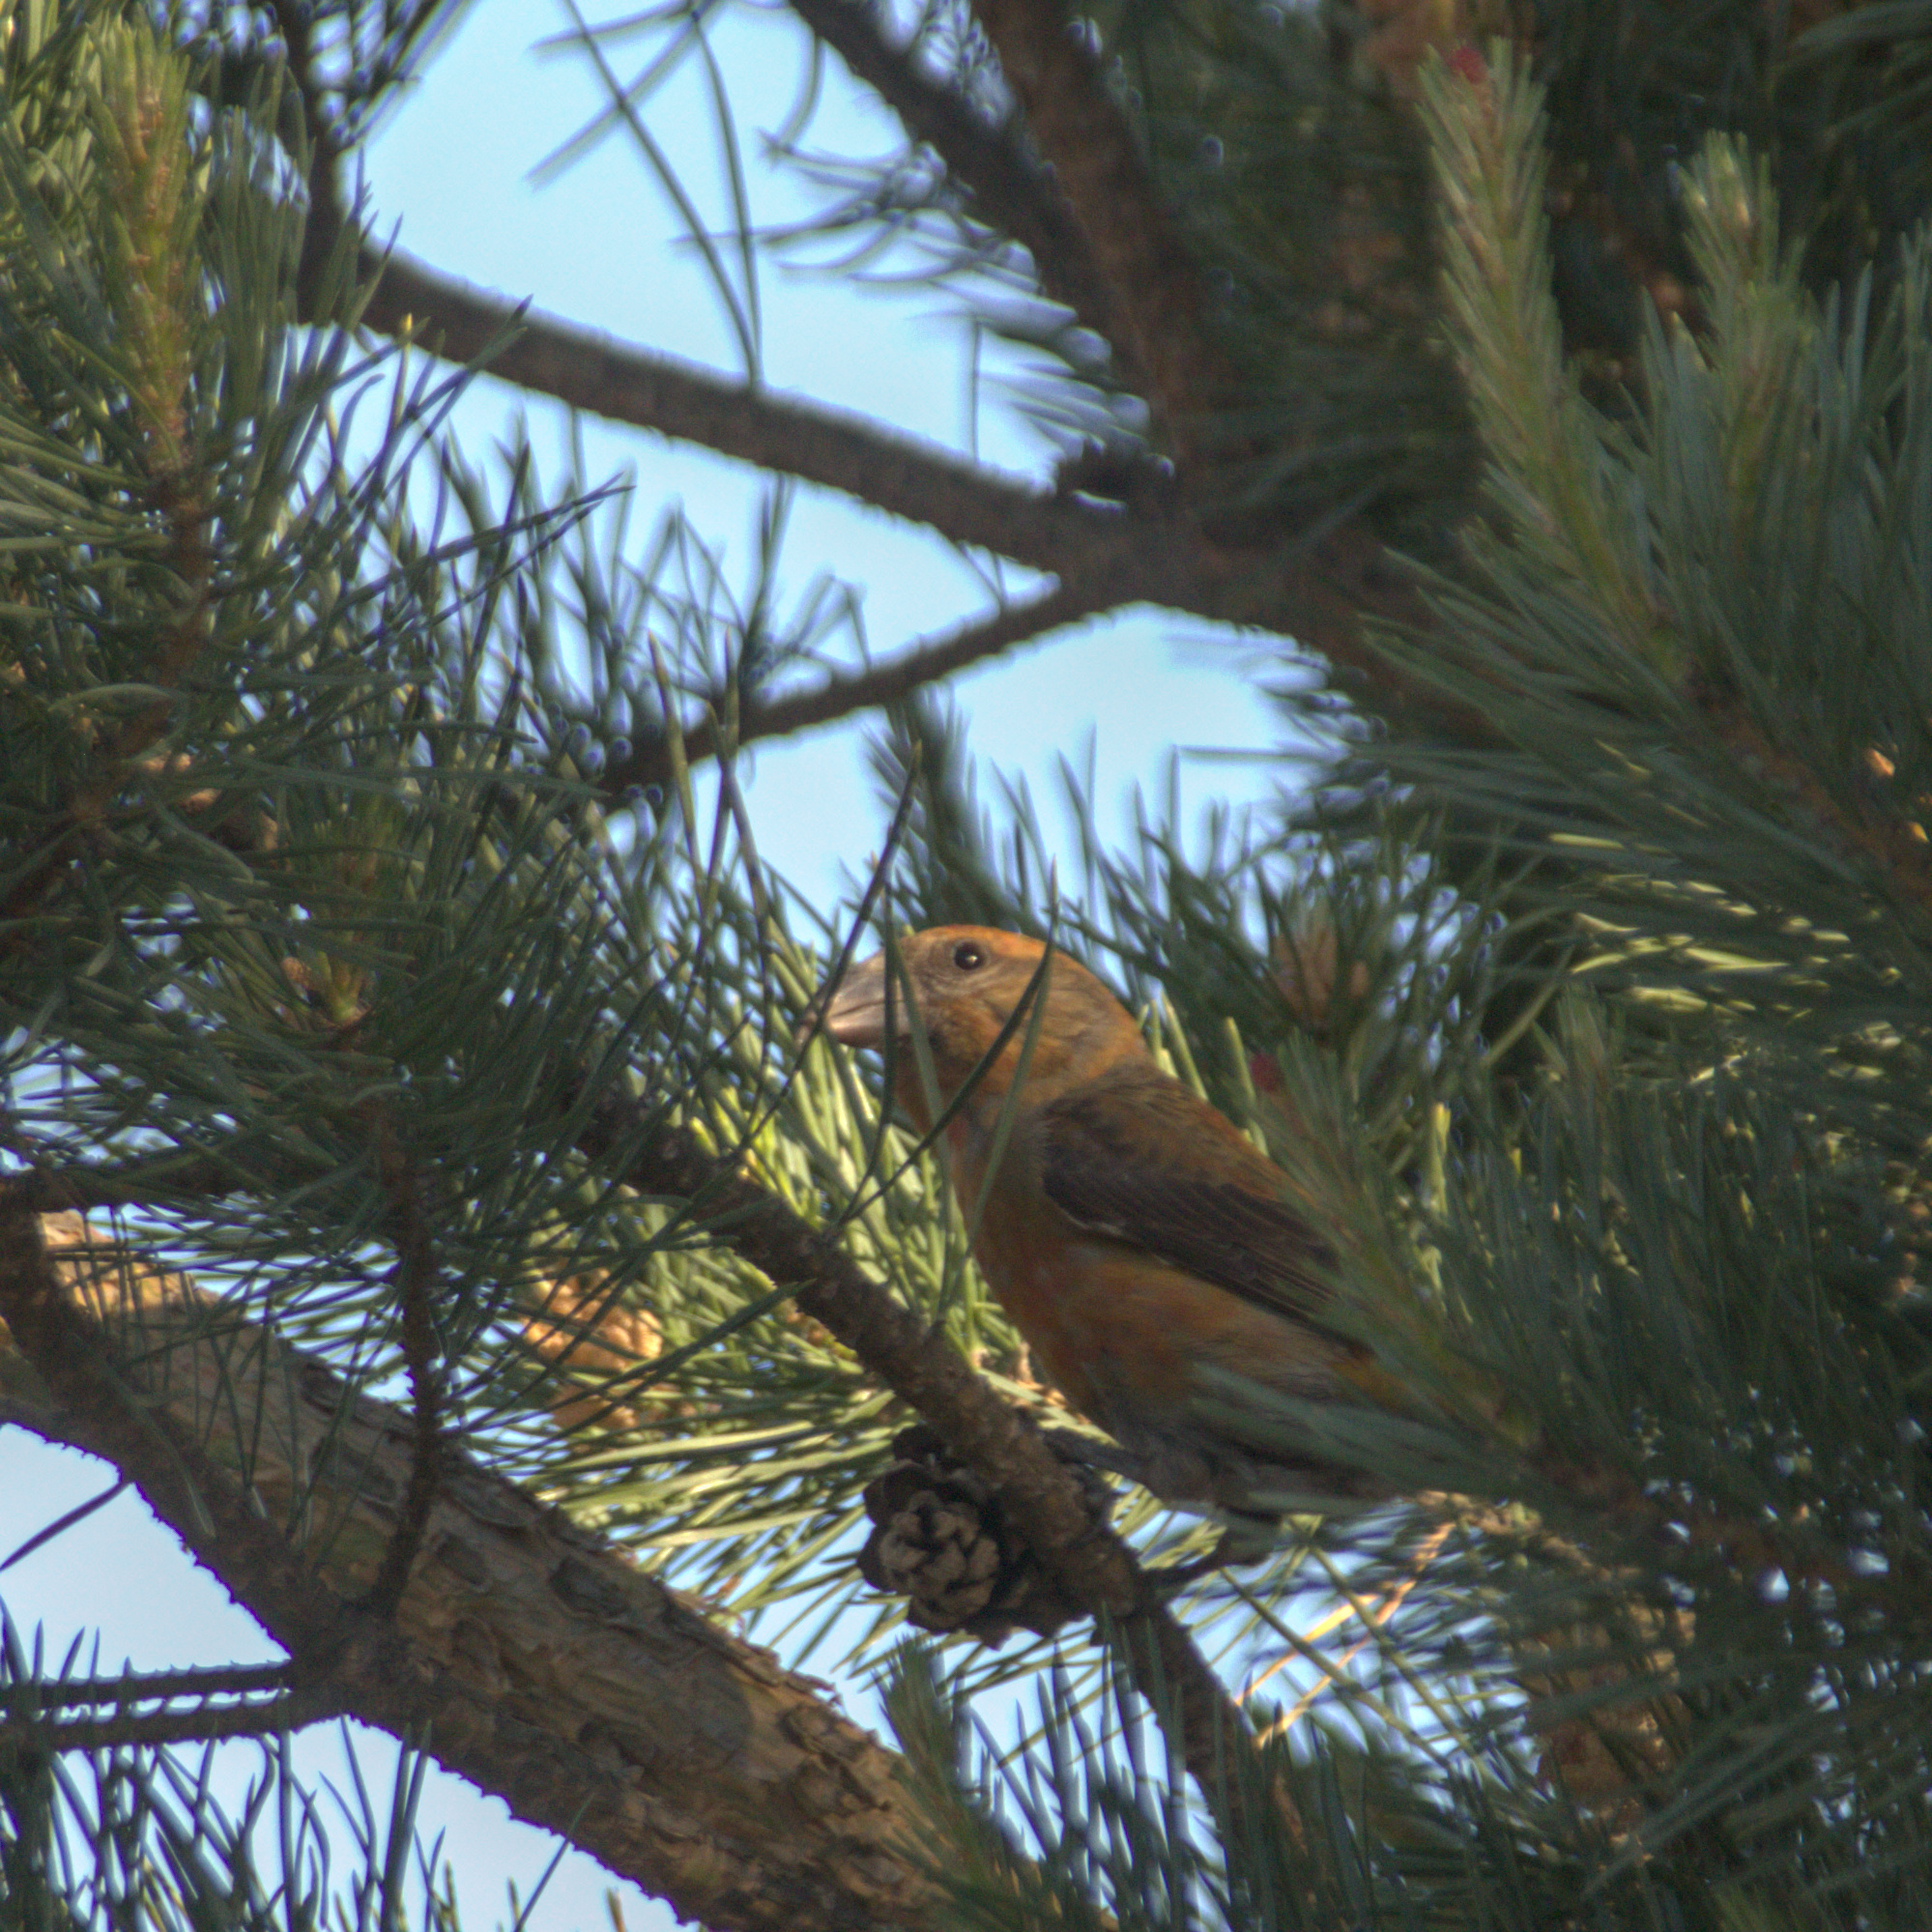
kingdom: Animalia
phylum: Chordata
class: Aves
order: Passeriformes
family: Fringillidae
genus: Loxia
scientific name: Loxia curvirostra
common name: Red crossbill
